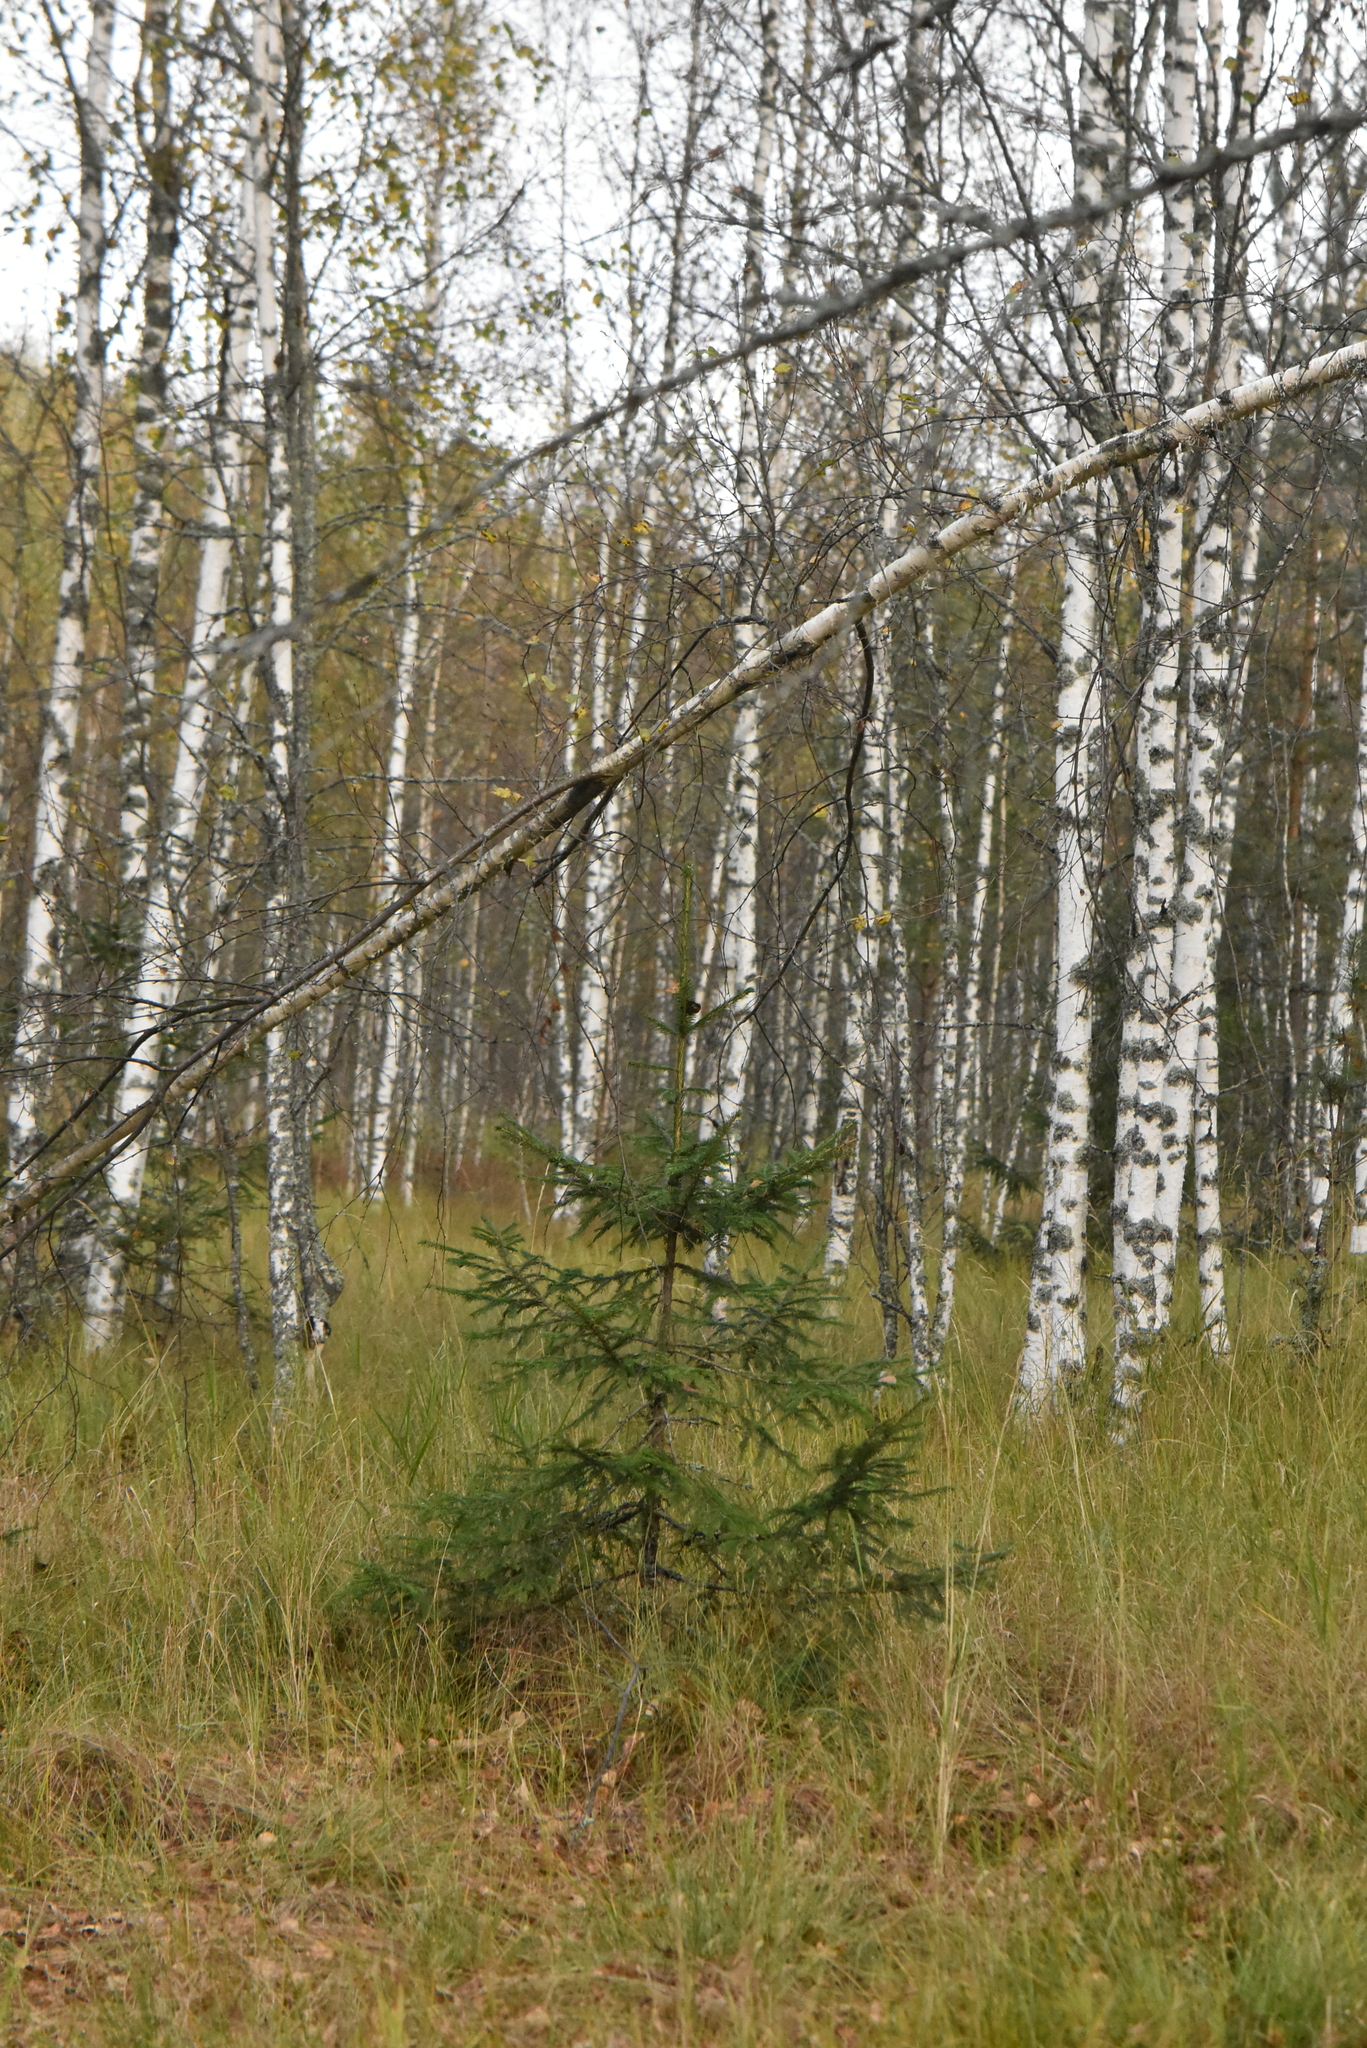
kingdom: Plantae
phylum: Tracheophyta
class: Pinopsida
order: Pinales
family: Pinaceae
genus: Picea
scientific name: Picea abies
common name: Norway spruce
